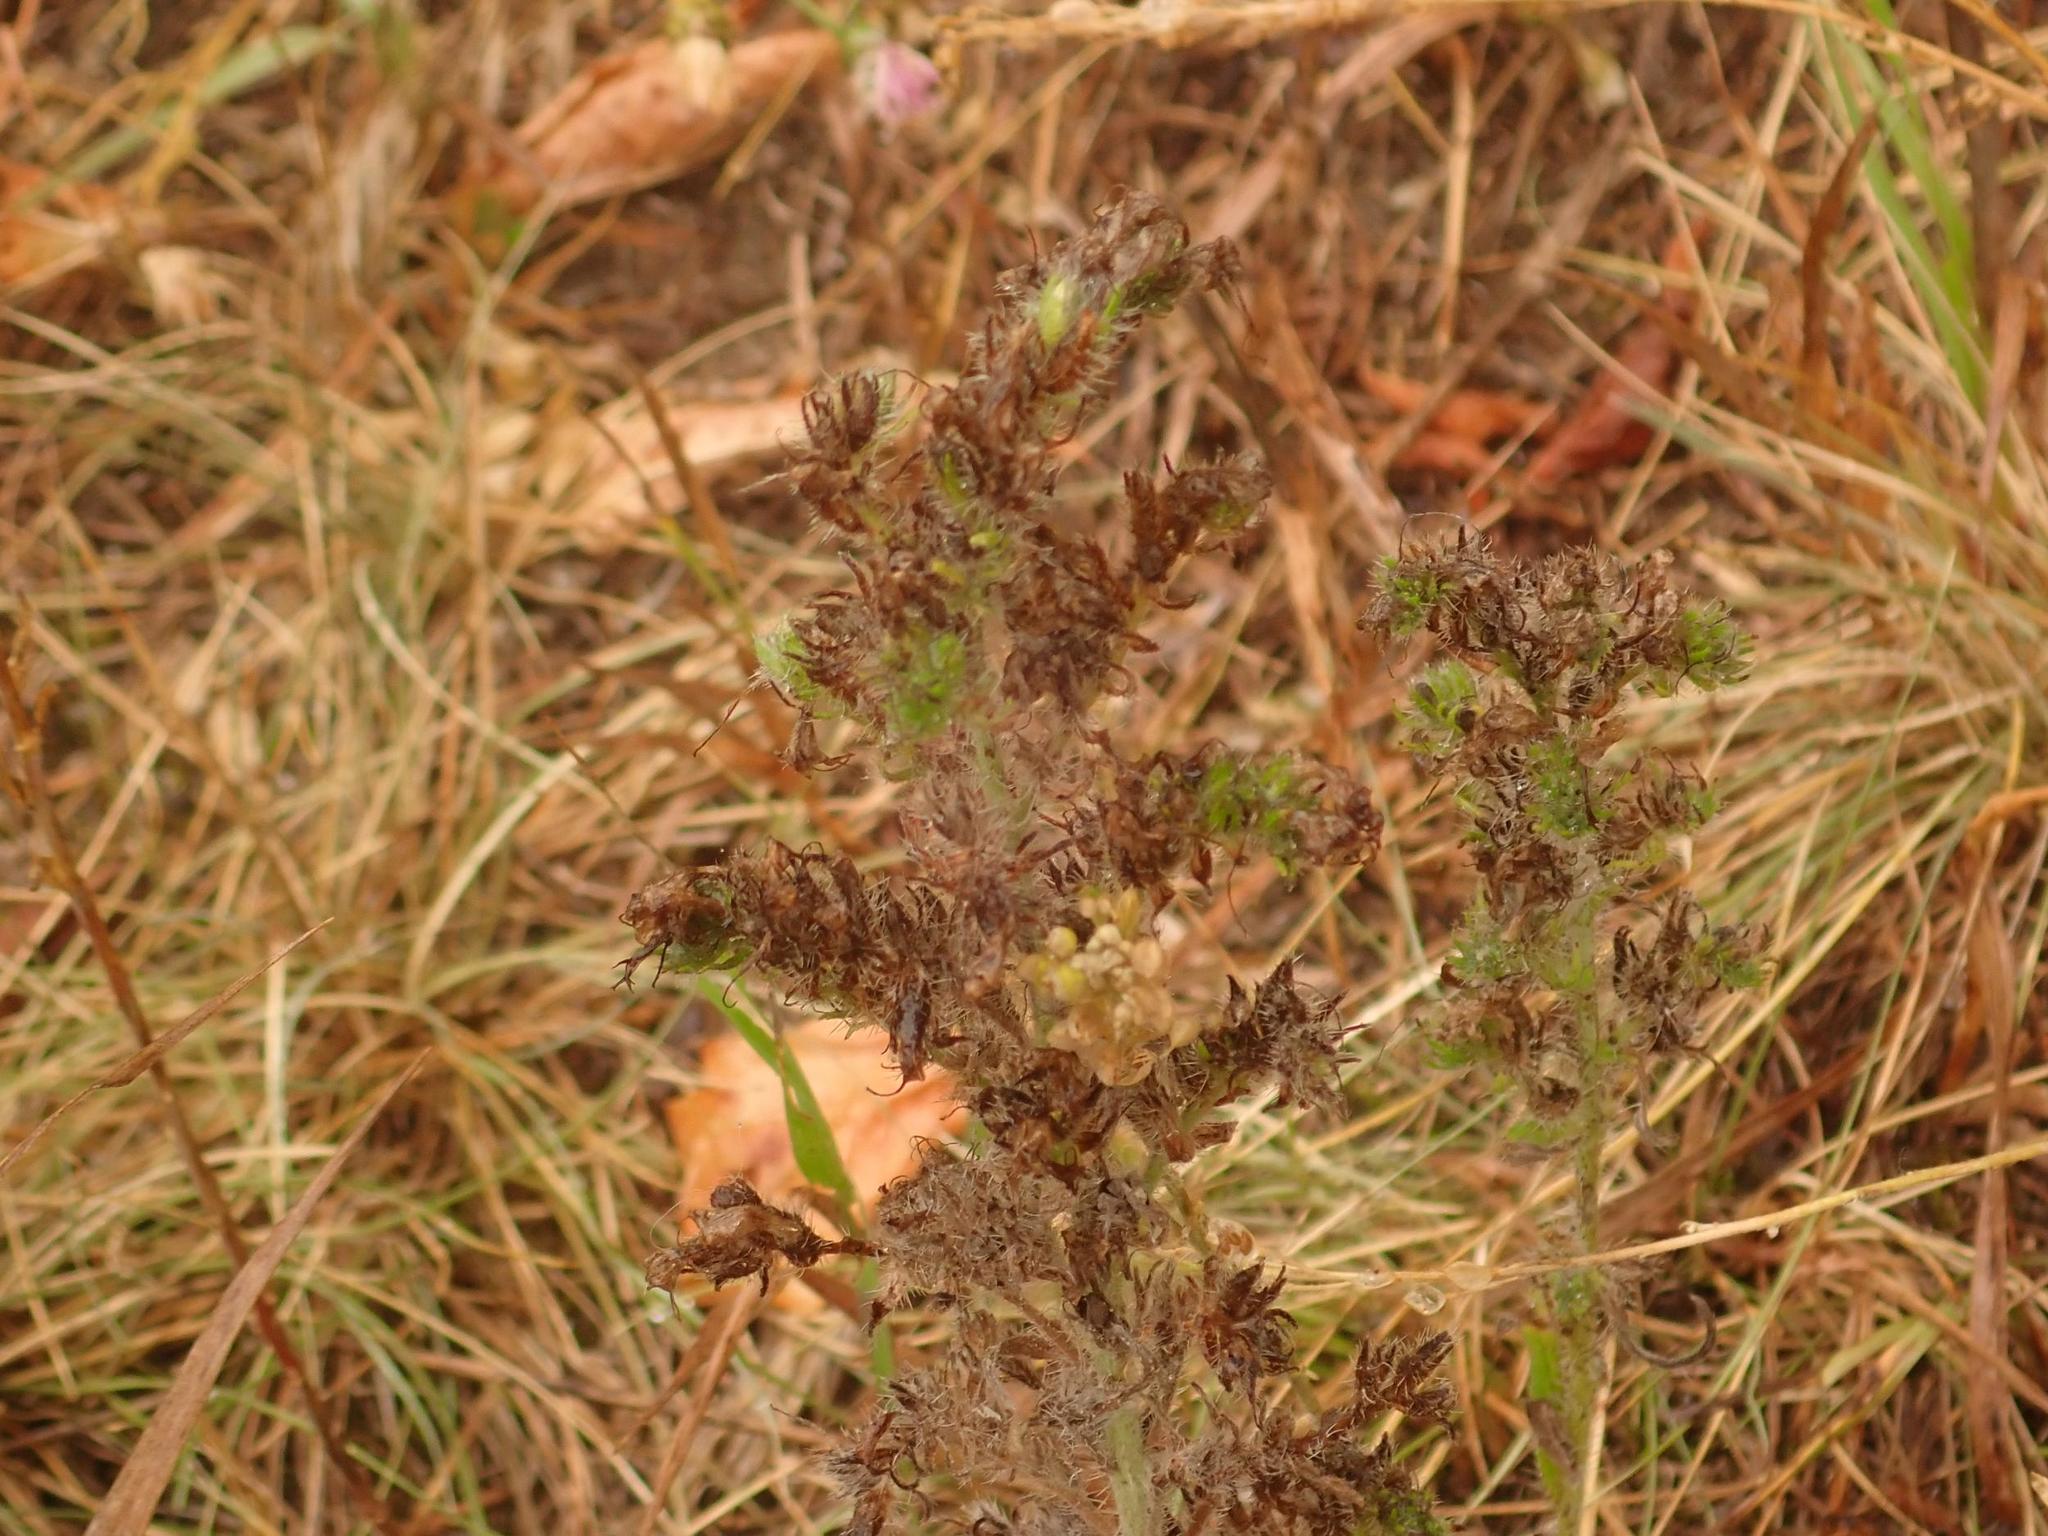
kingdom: Plantae
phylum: Tracheophyta
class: Magnoliopsida
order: Boraginales
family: Boraginaceae
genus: Echium
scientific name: Echium vulgare
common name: Common viper's bugloss
